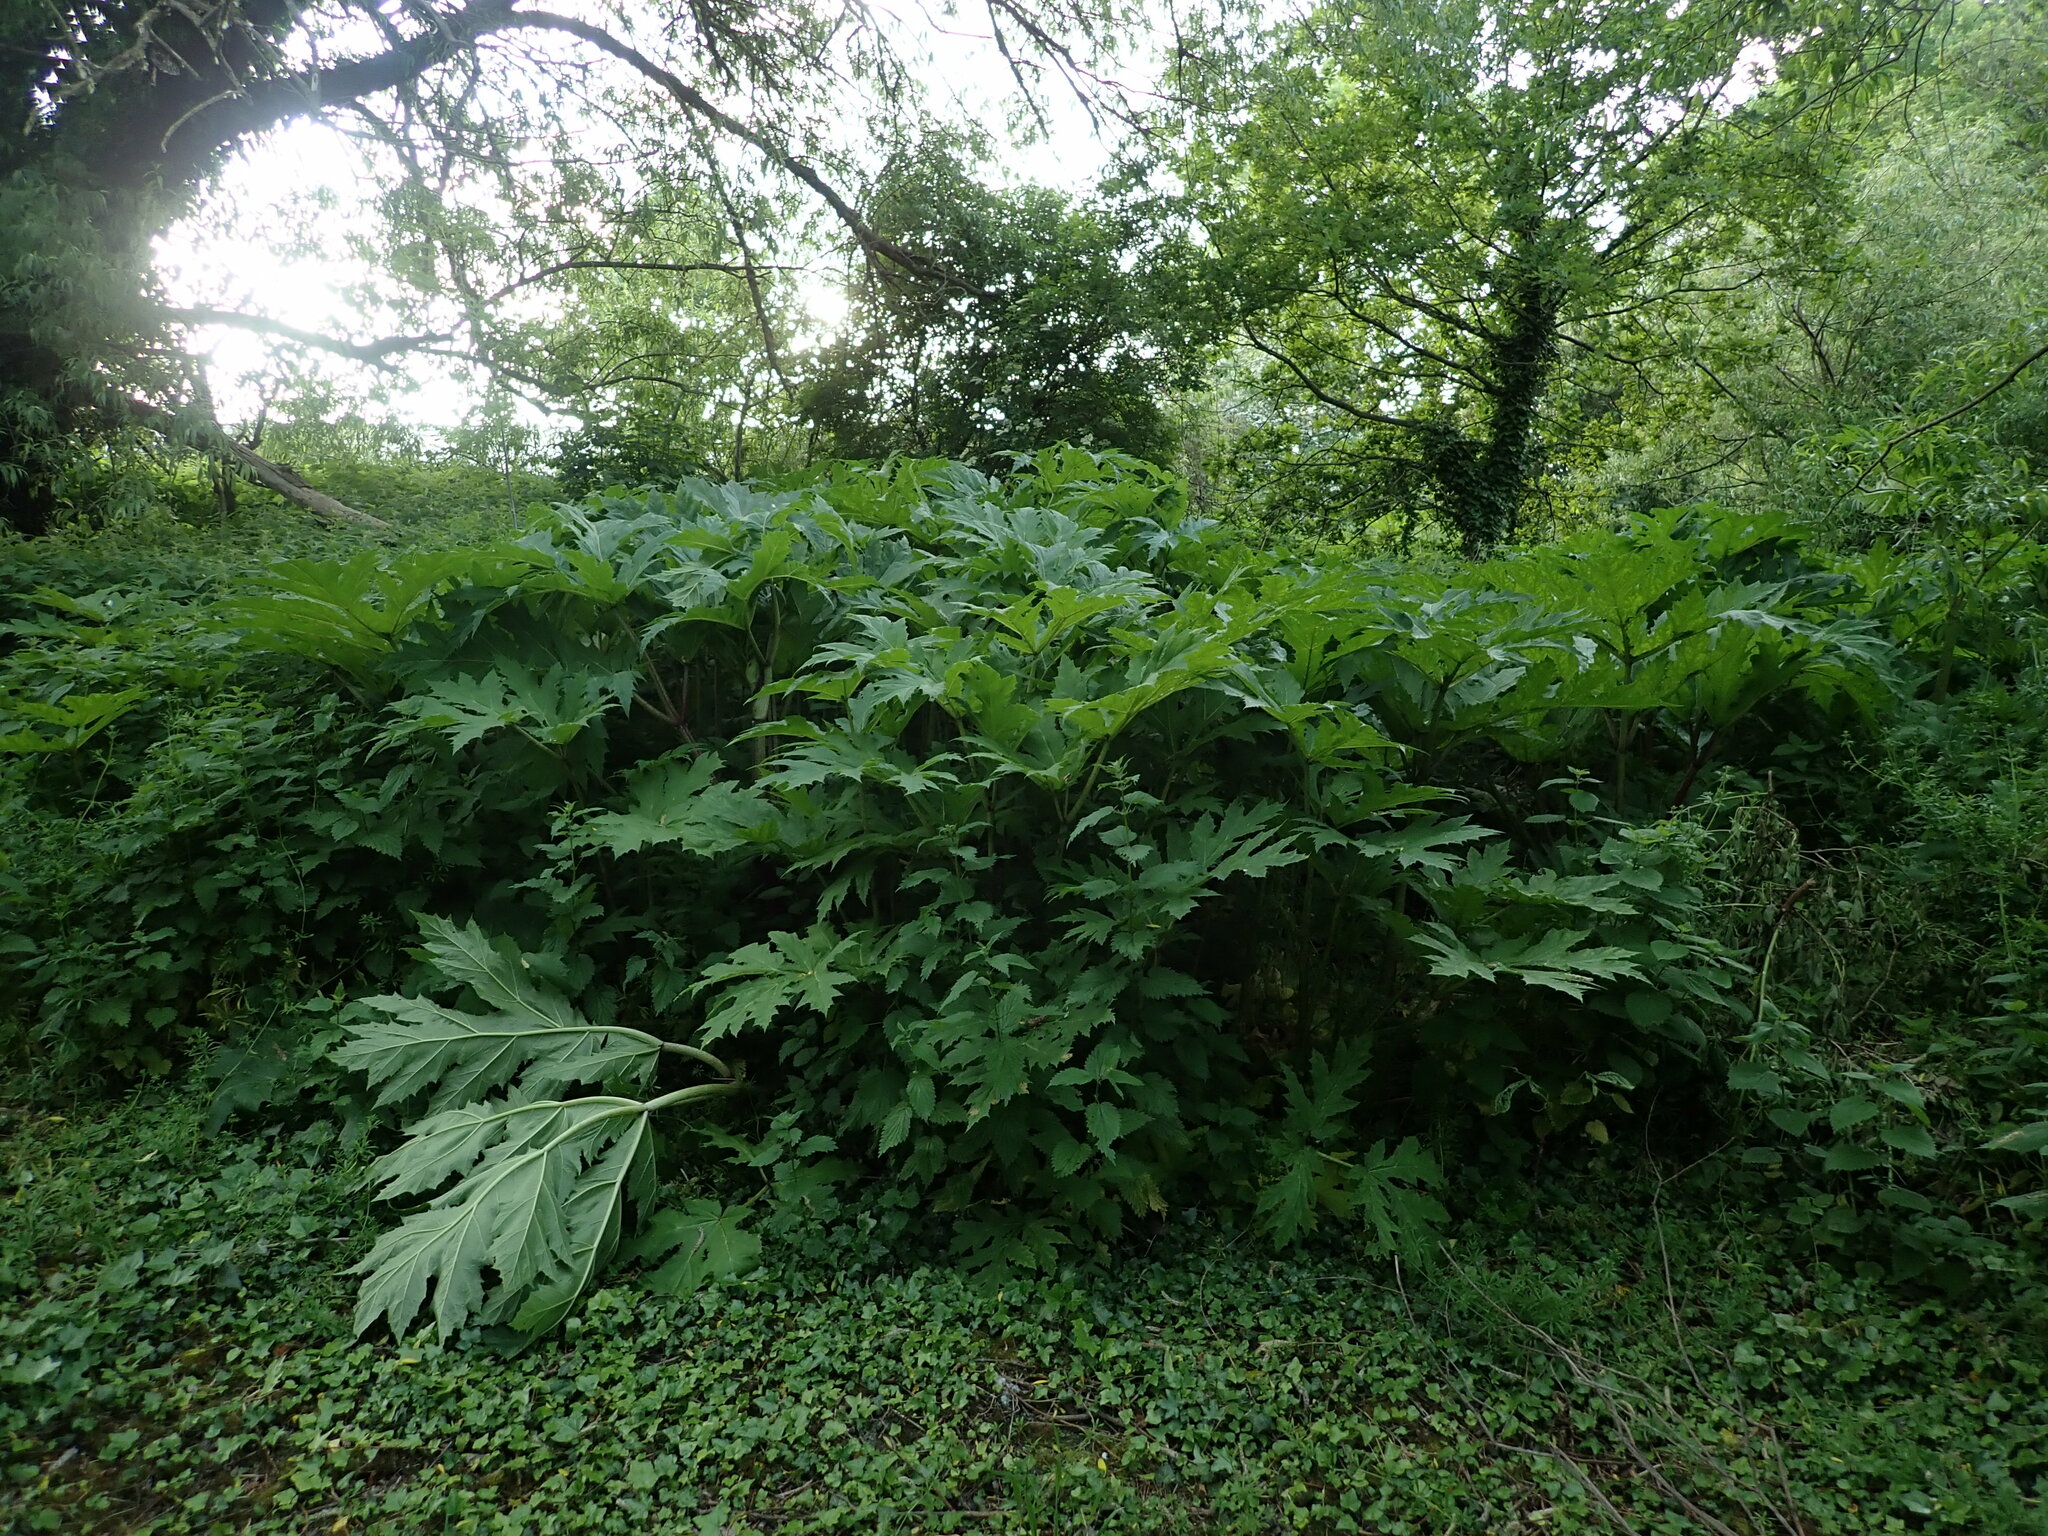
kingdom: Plantae
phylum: Tracheophyta
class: Magnoliopsida
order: Apiales
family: Apiaceae
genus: Heracleum
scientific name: Heracleum mantegazzianum
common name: Giant hogweed
